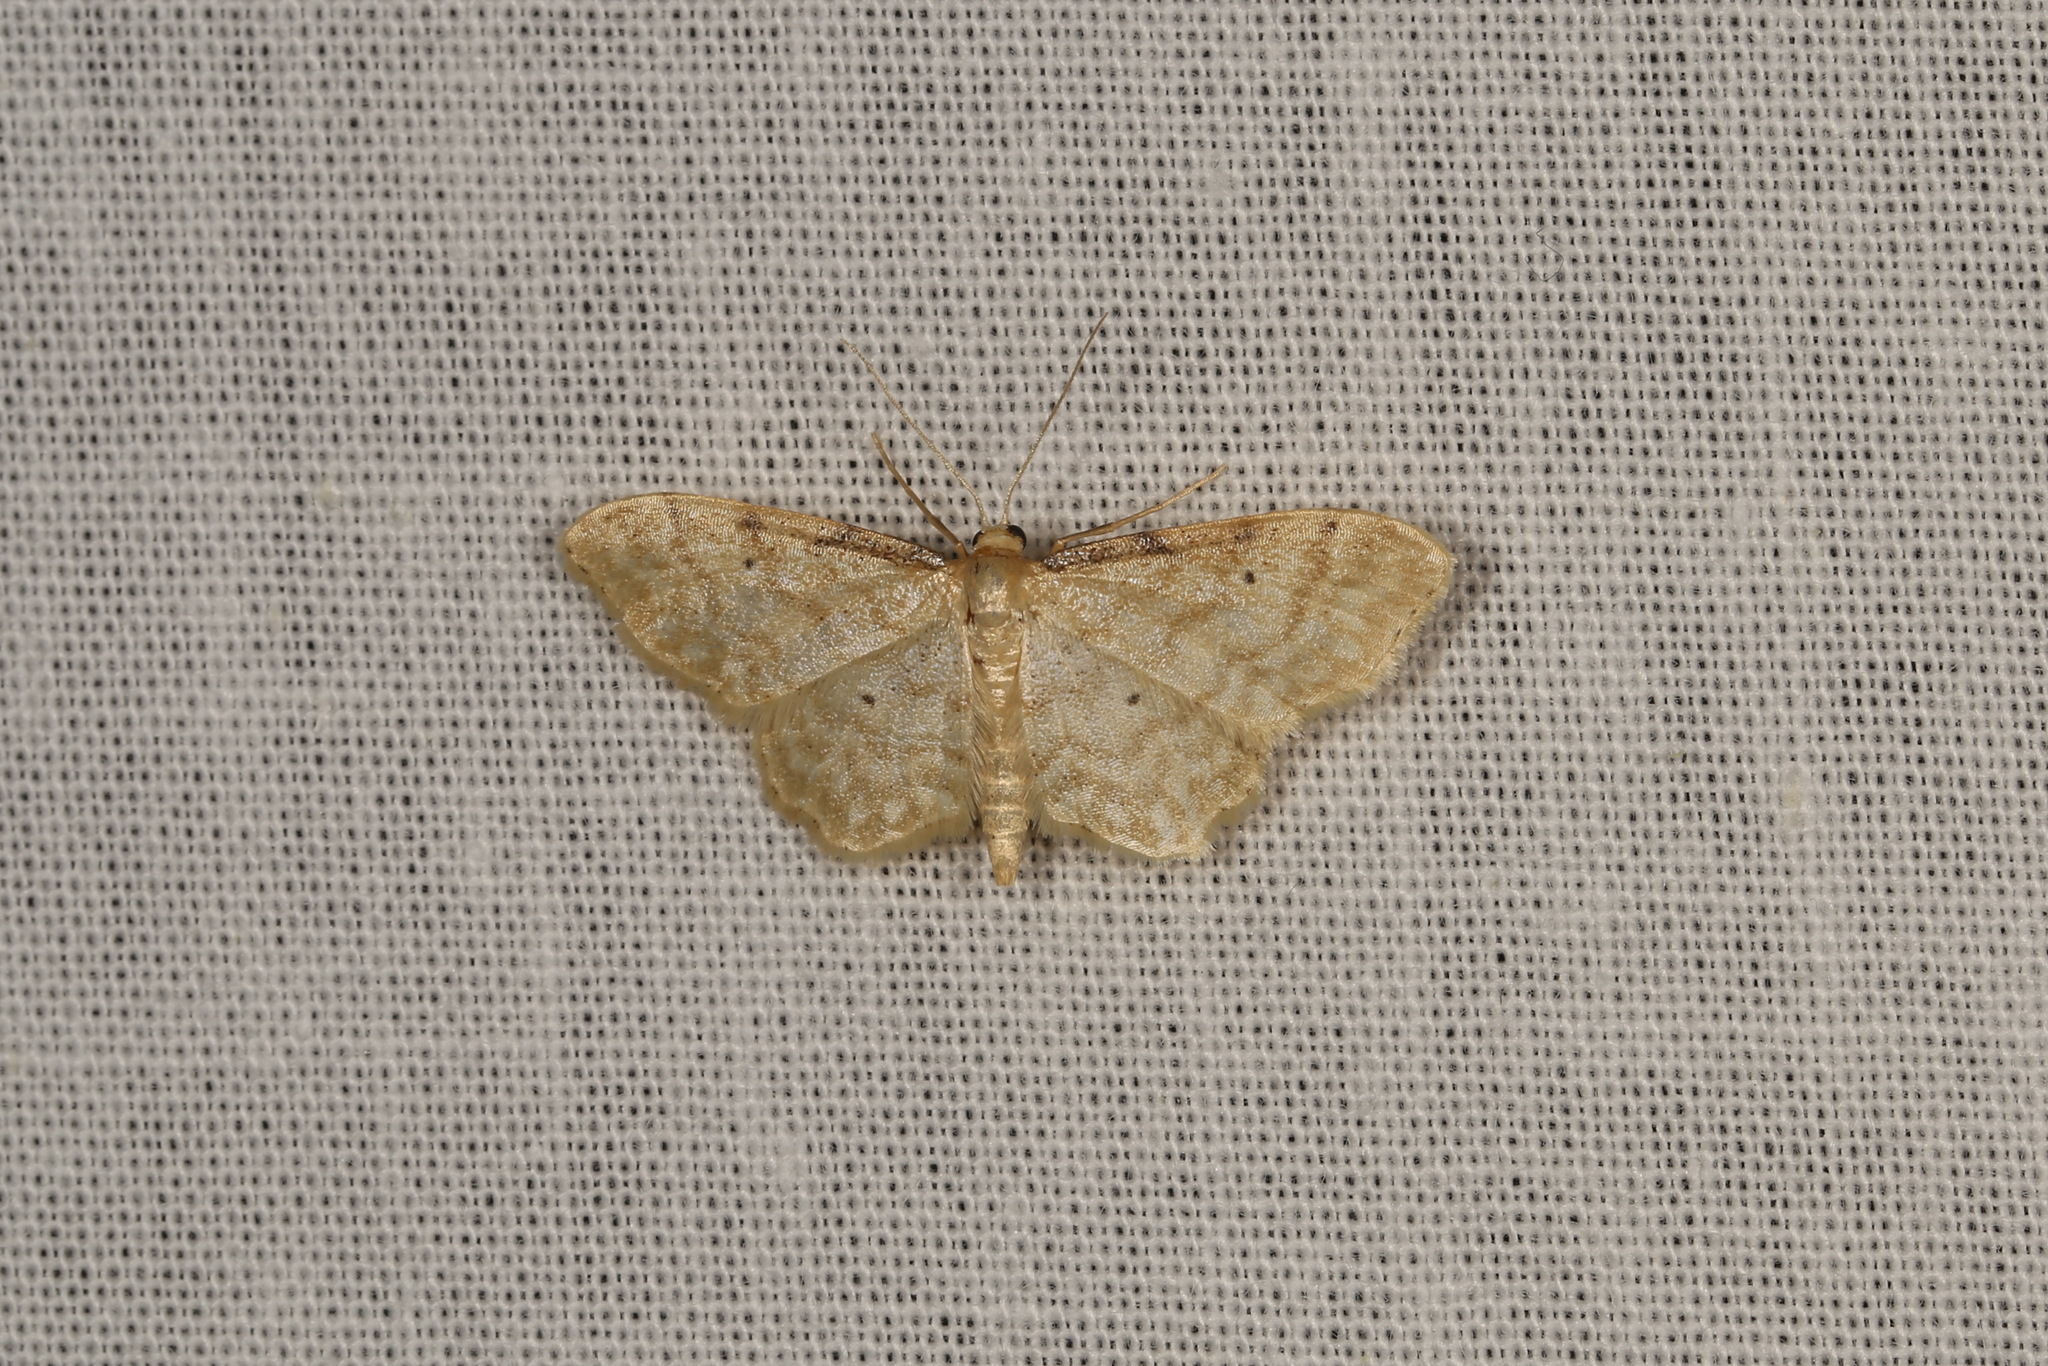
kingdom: Animalia
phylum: Arthropoda
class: Insecta
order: Lepidoptera
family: Geometridae
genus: Idaea
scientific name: Idaea fuscovenosa
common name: Dwarf cream wave
